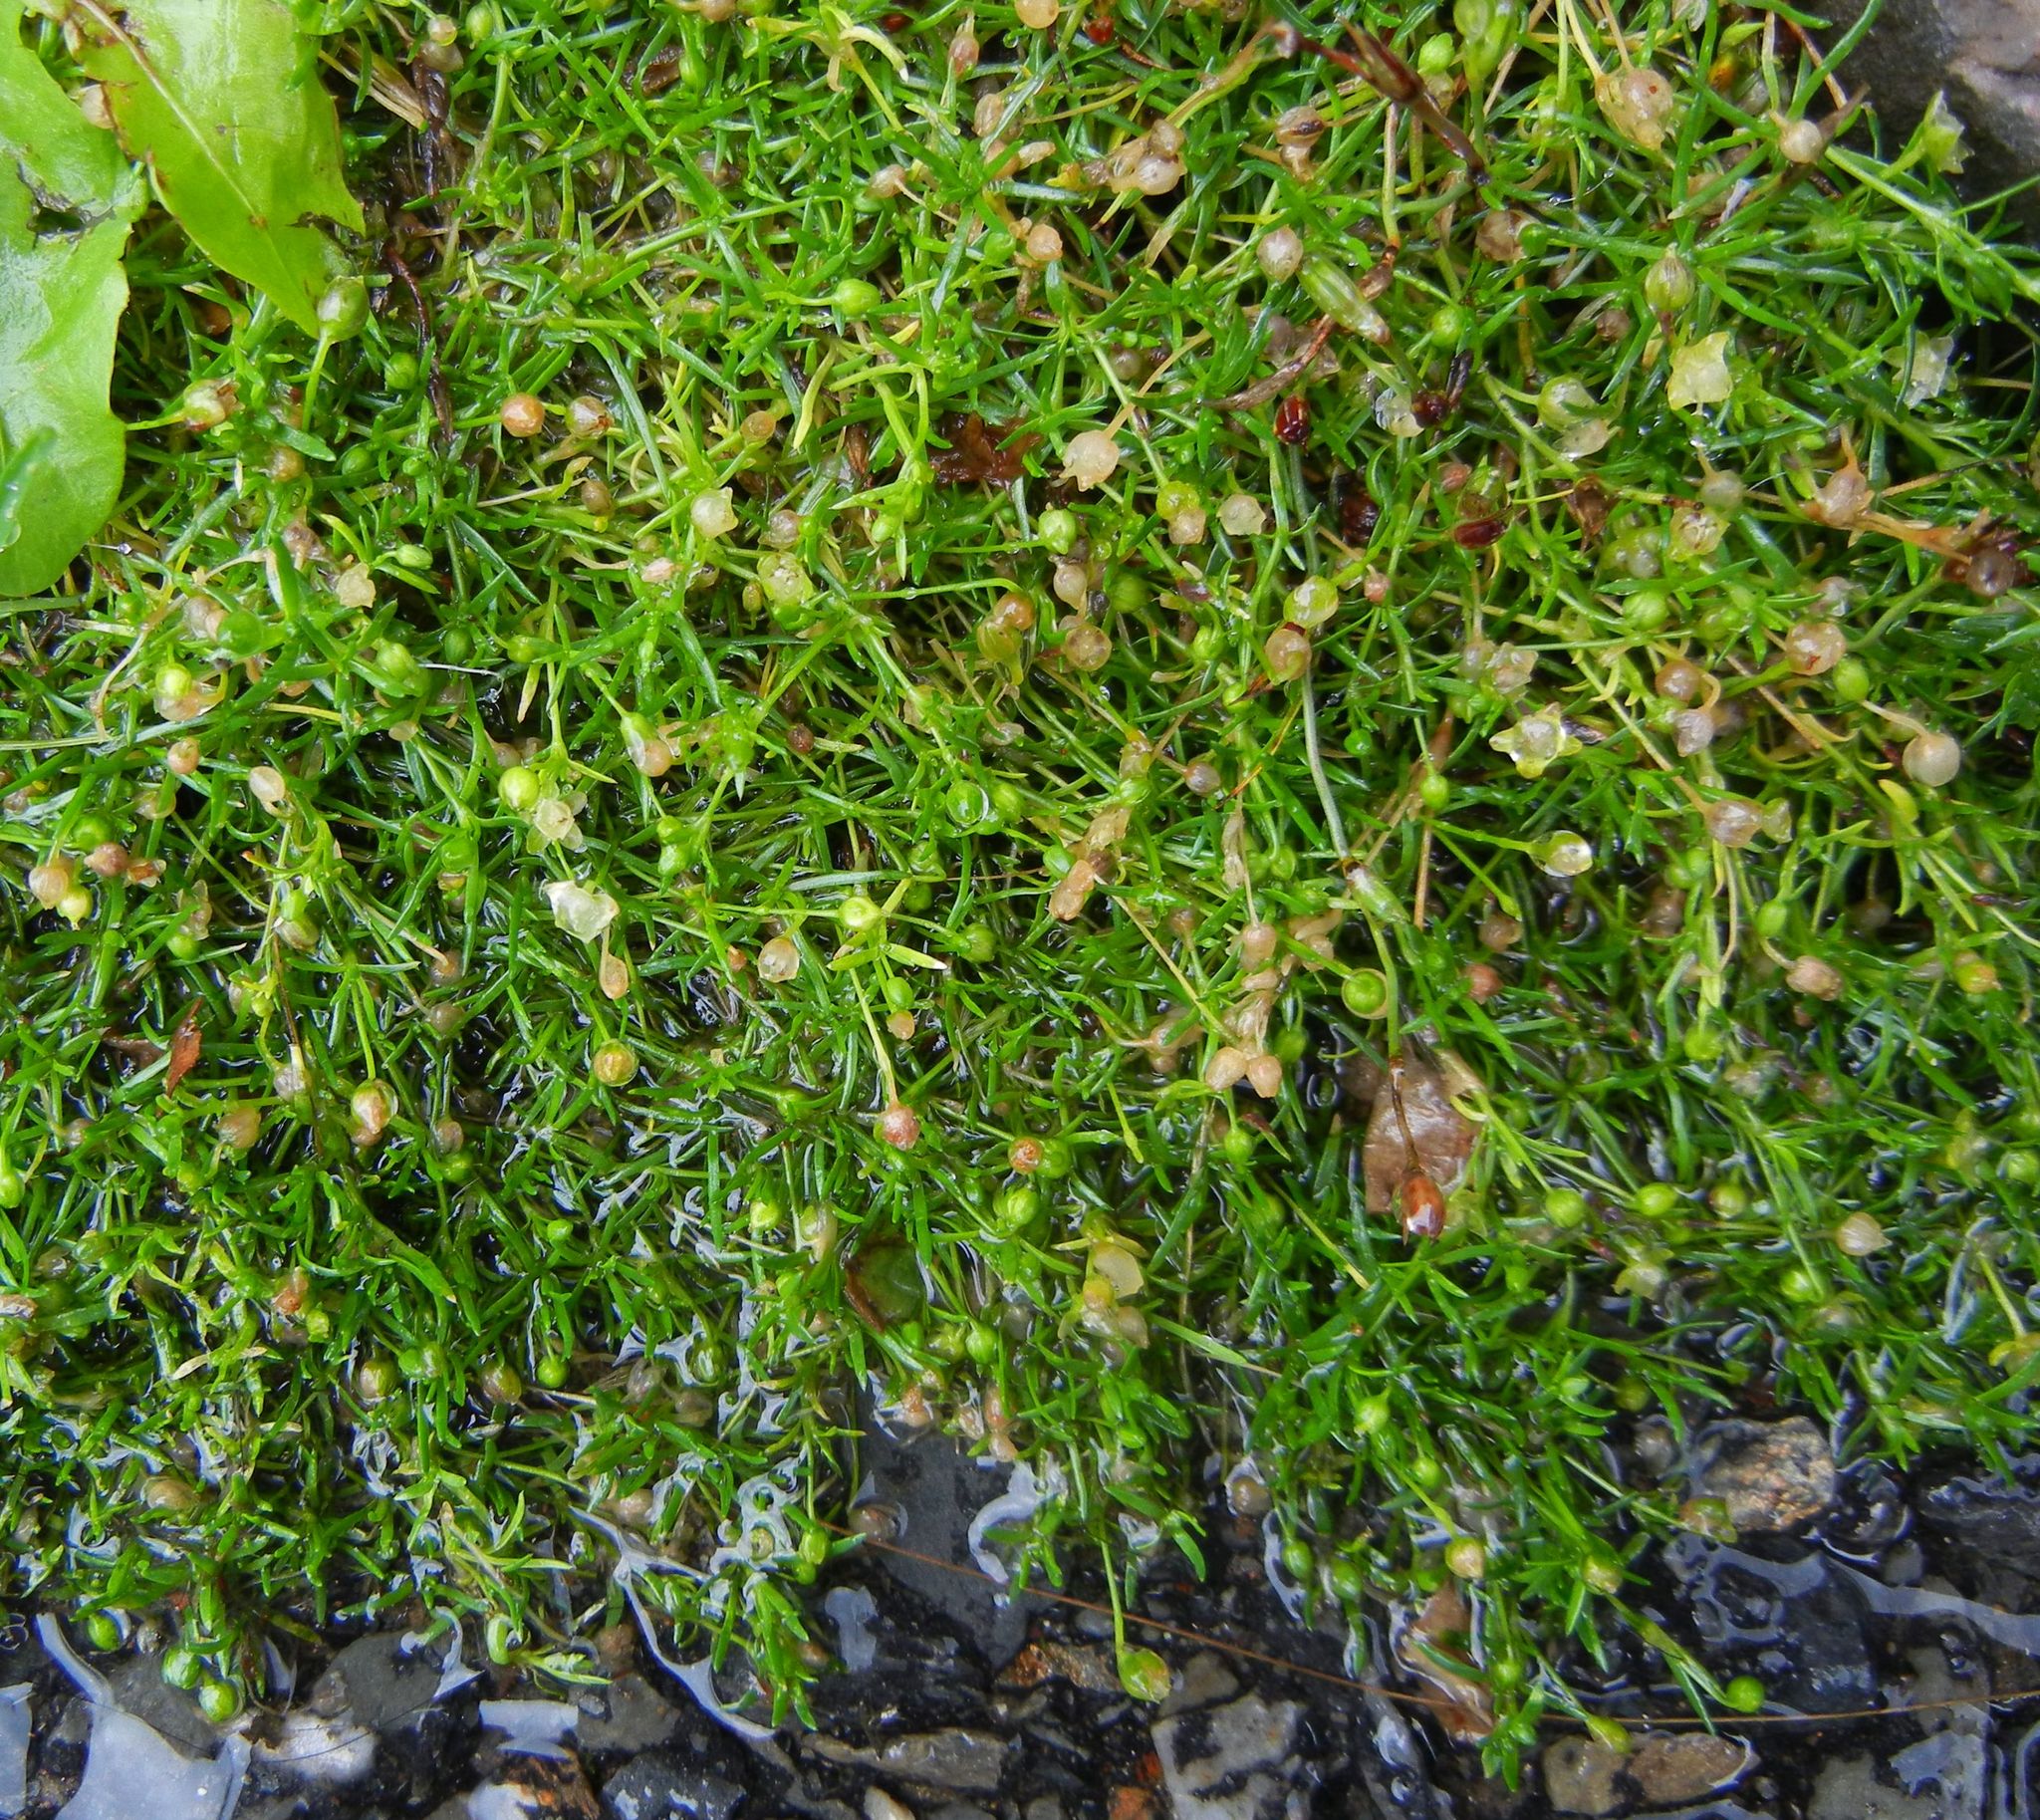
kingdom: Plantae
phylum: Tracheophyta
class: Magnoliopsida
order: Caryophyllales
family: Caryophyllaceae
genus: Sagina
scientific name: Sagina procumbens
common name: Procumbent pearlwort
